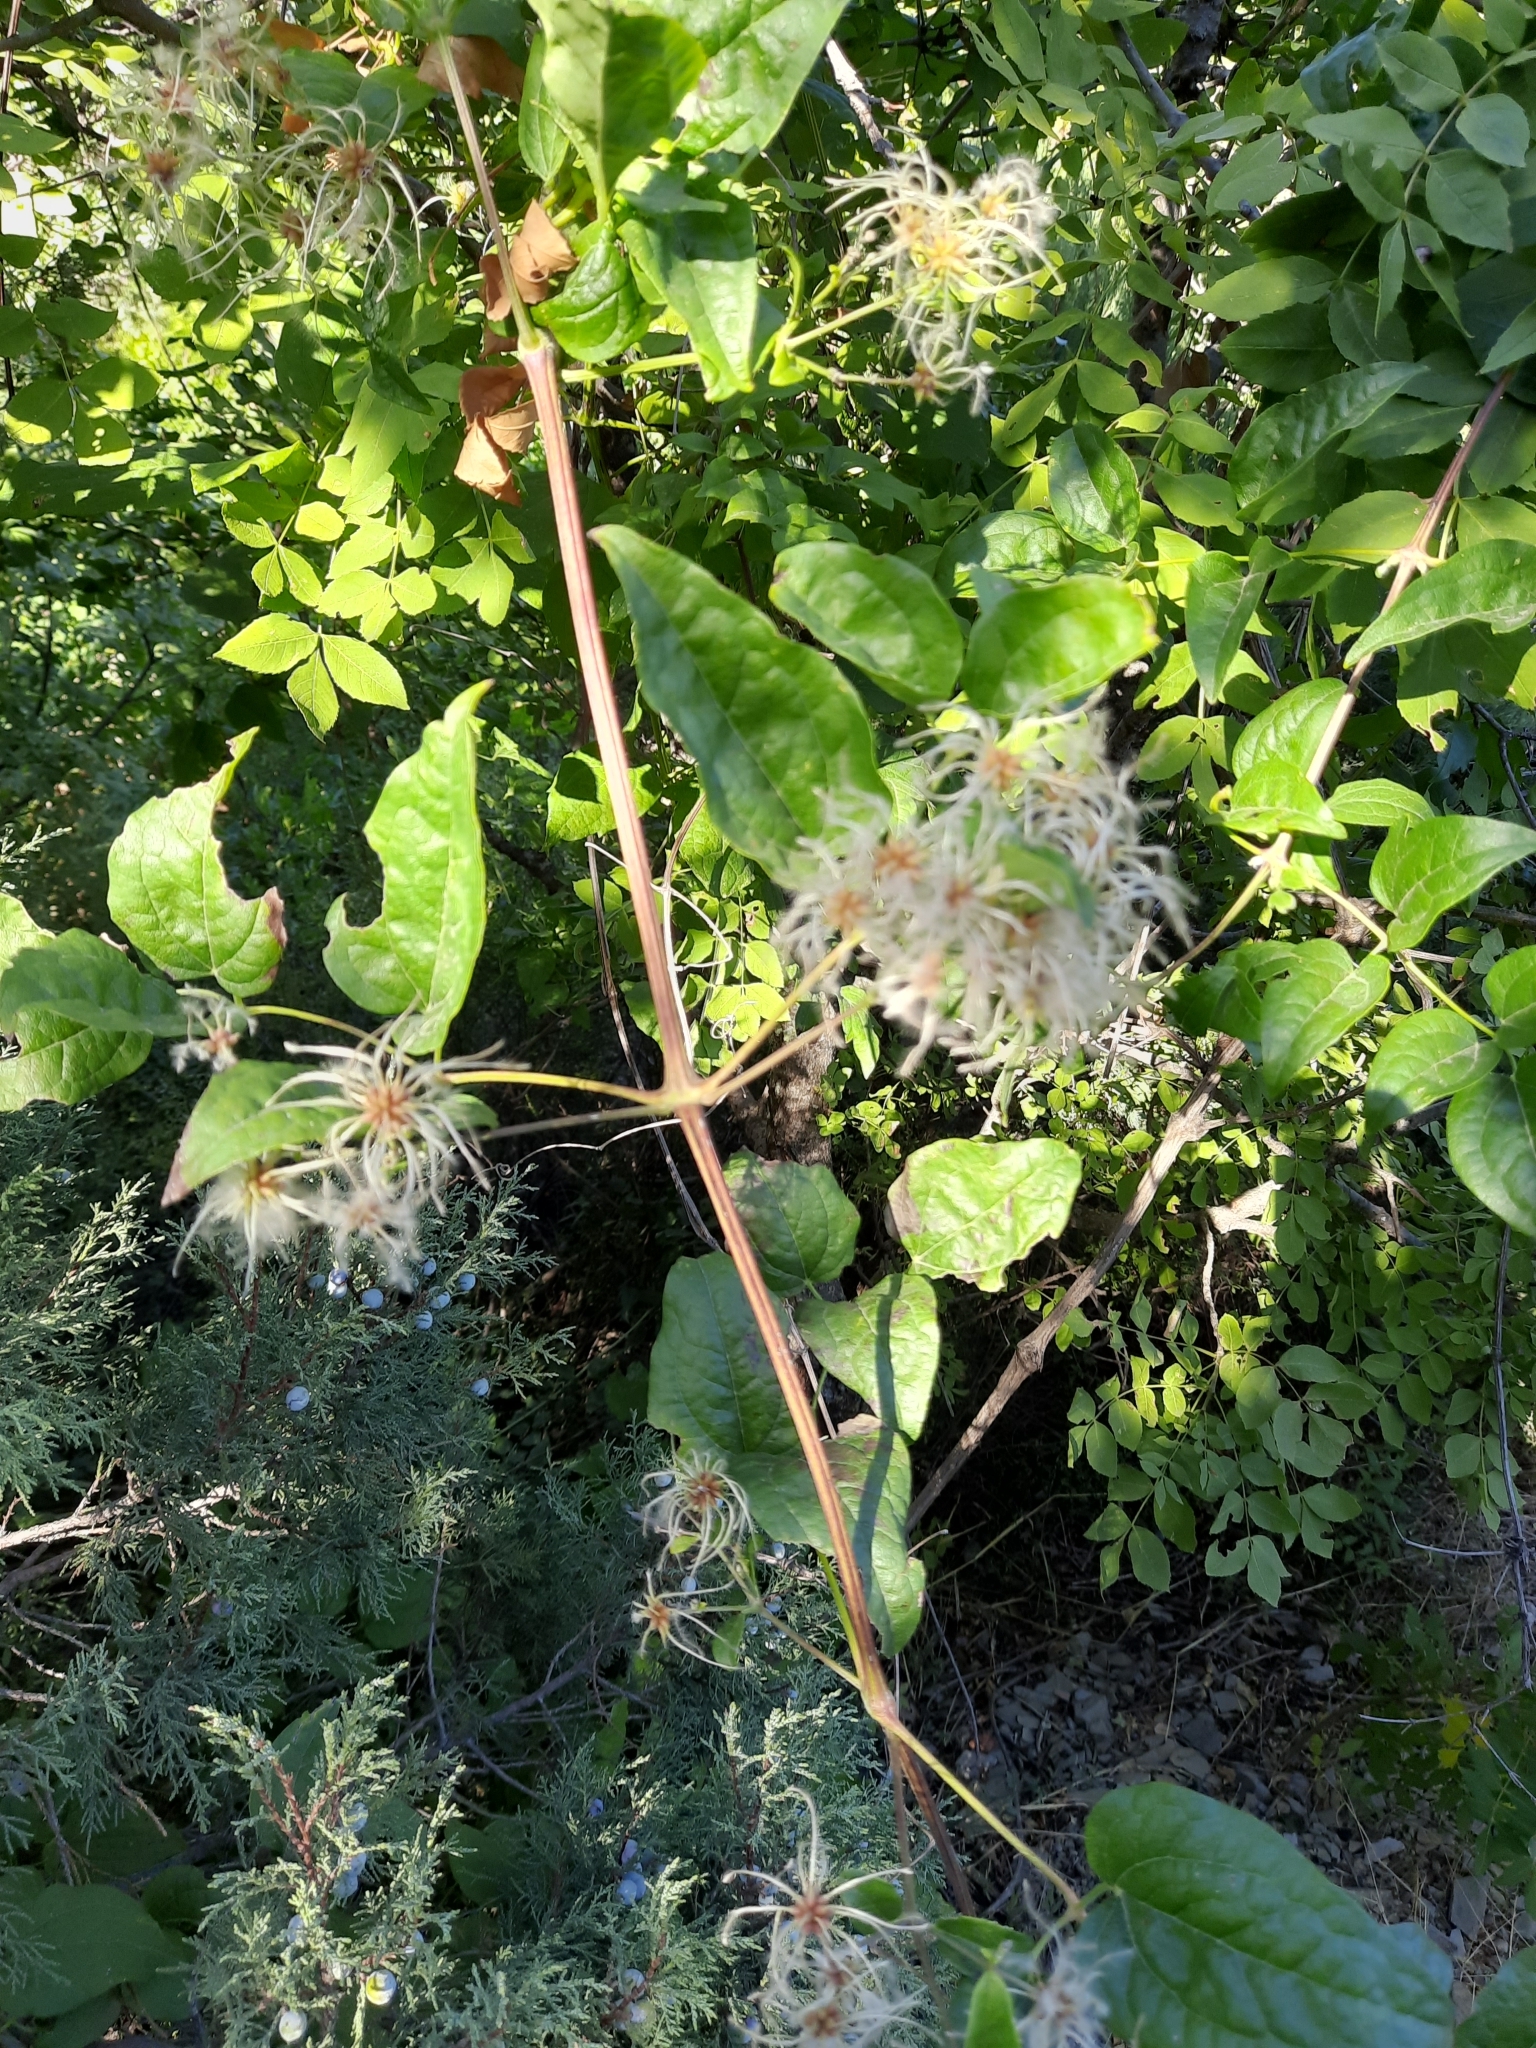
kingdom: Plantae
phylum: Tracheophyta
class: Magnoliopsida
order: Ranunculales
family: Ranunculaceae
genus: Clematis
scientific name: Clematis vitalba
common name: Evergreen clematis
